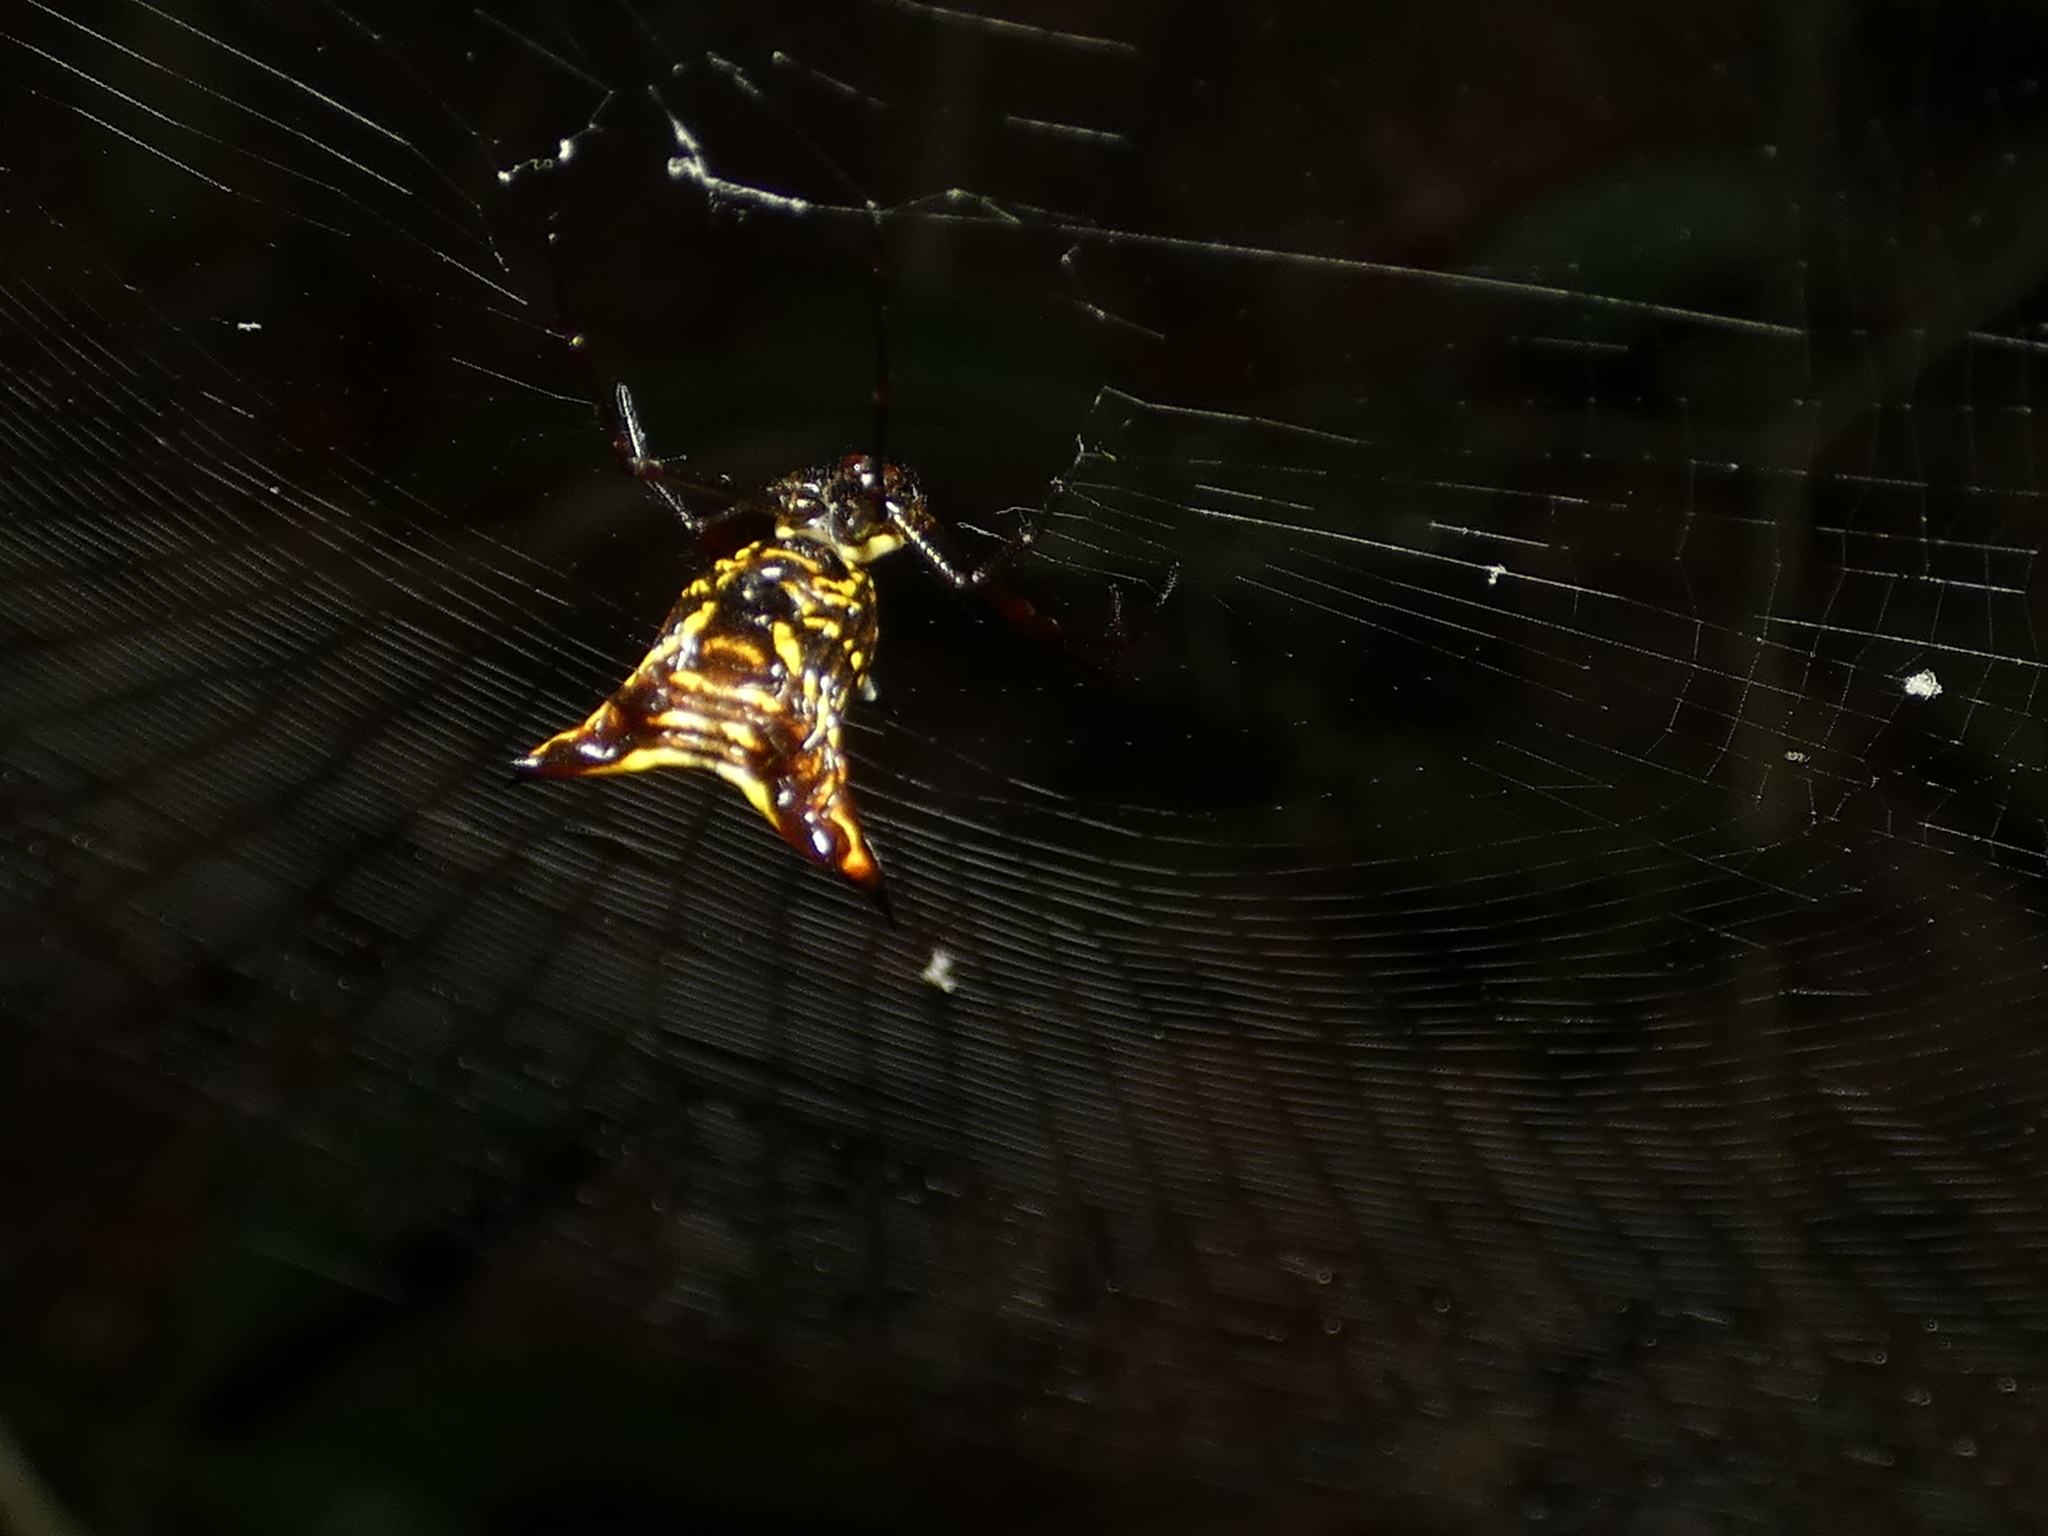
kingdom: Animalia
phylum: Arthropoda
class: Arachnida
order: Araneae
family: Araneidae
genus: Micrathena
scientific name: Micrathena fissispina
